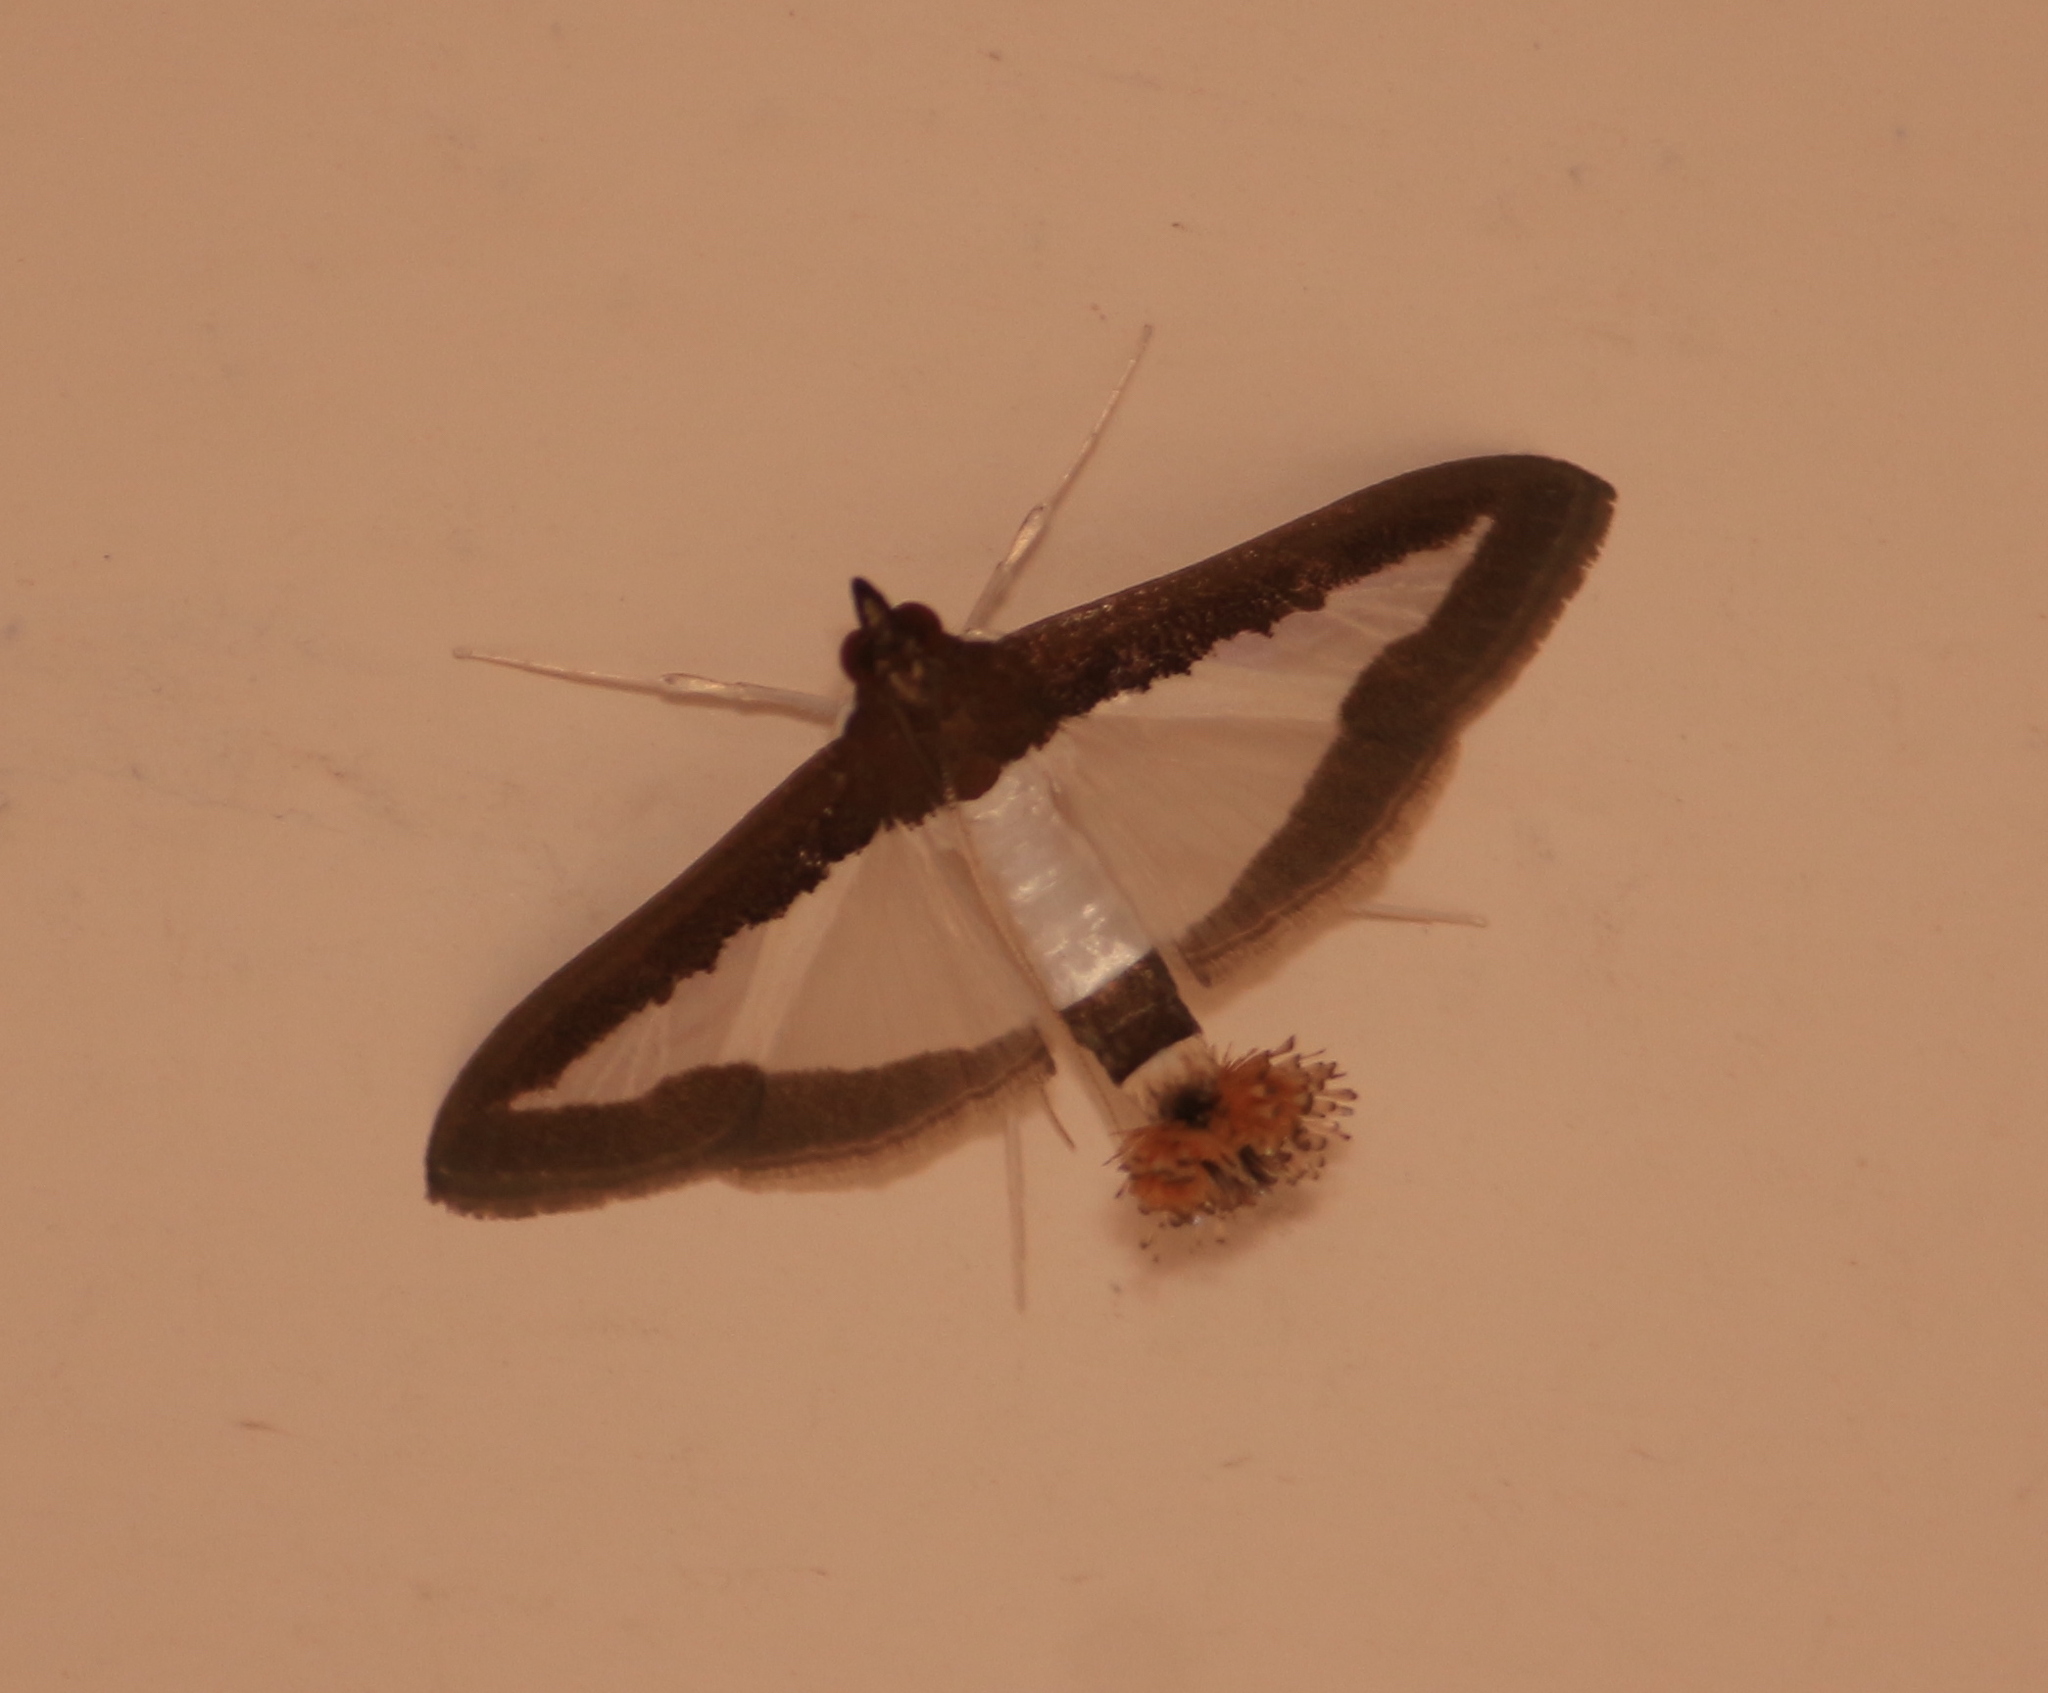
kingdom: Animalia
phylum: Arthropoda
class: Insecta
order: Lepidoptera
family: Crambidae
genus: Diaphania
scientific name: Diaphania hyalinata
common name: Melonworm
